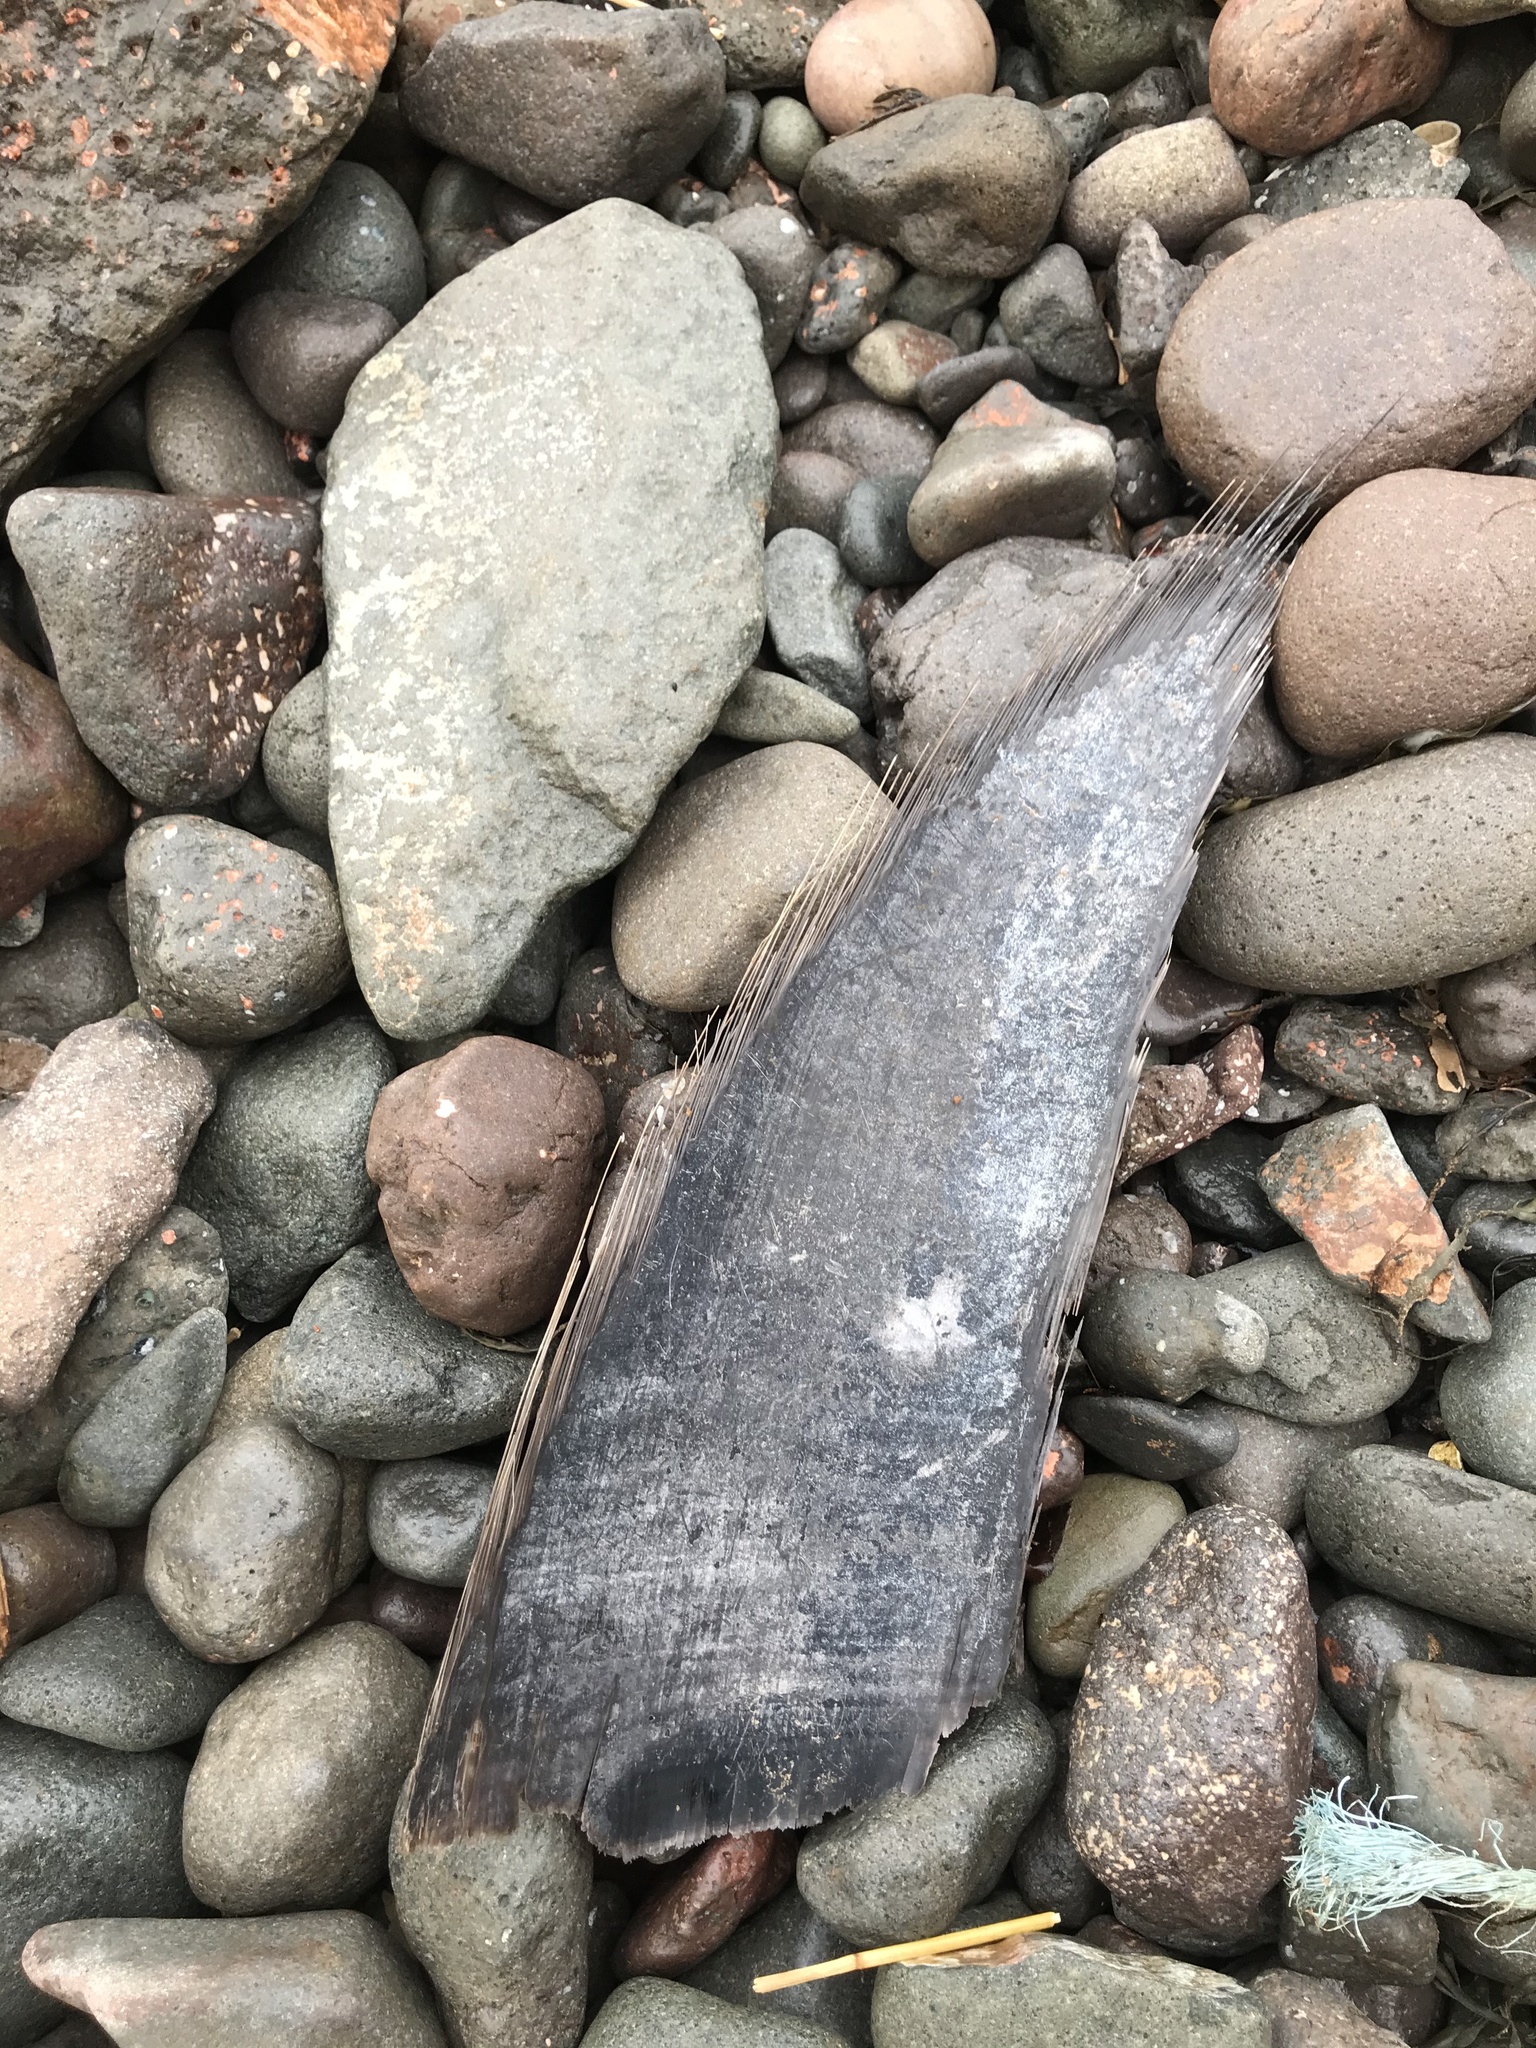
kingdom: Animalia
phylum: Chordata
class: Mammalia
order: Cetacea
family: Balaenopteridae
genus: Megaptera
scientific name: Megaptera novaeangliae
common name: Humpback whale
